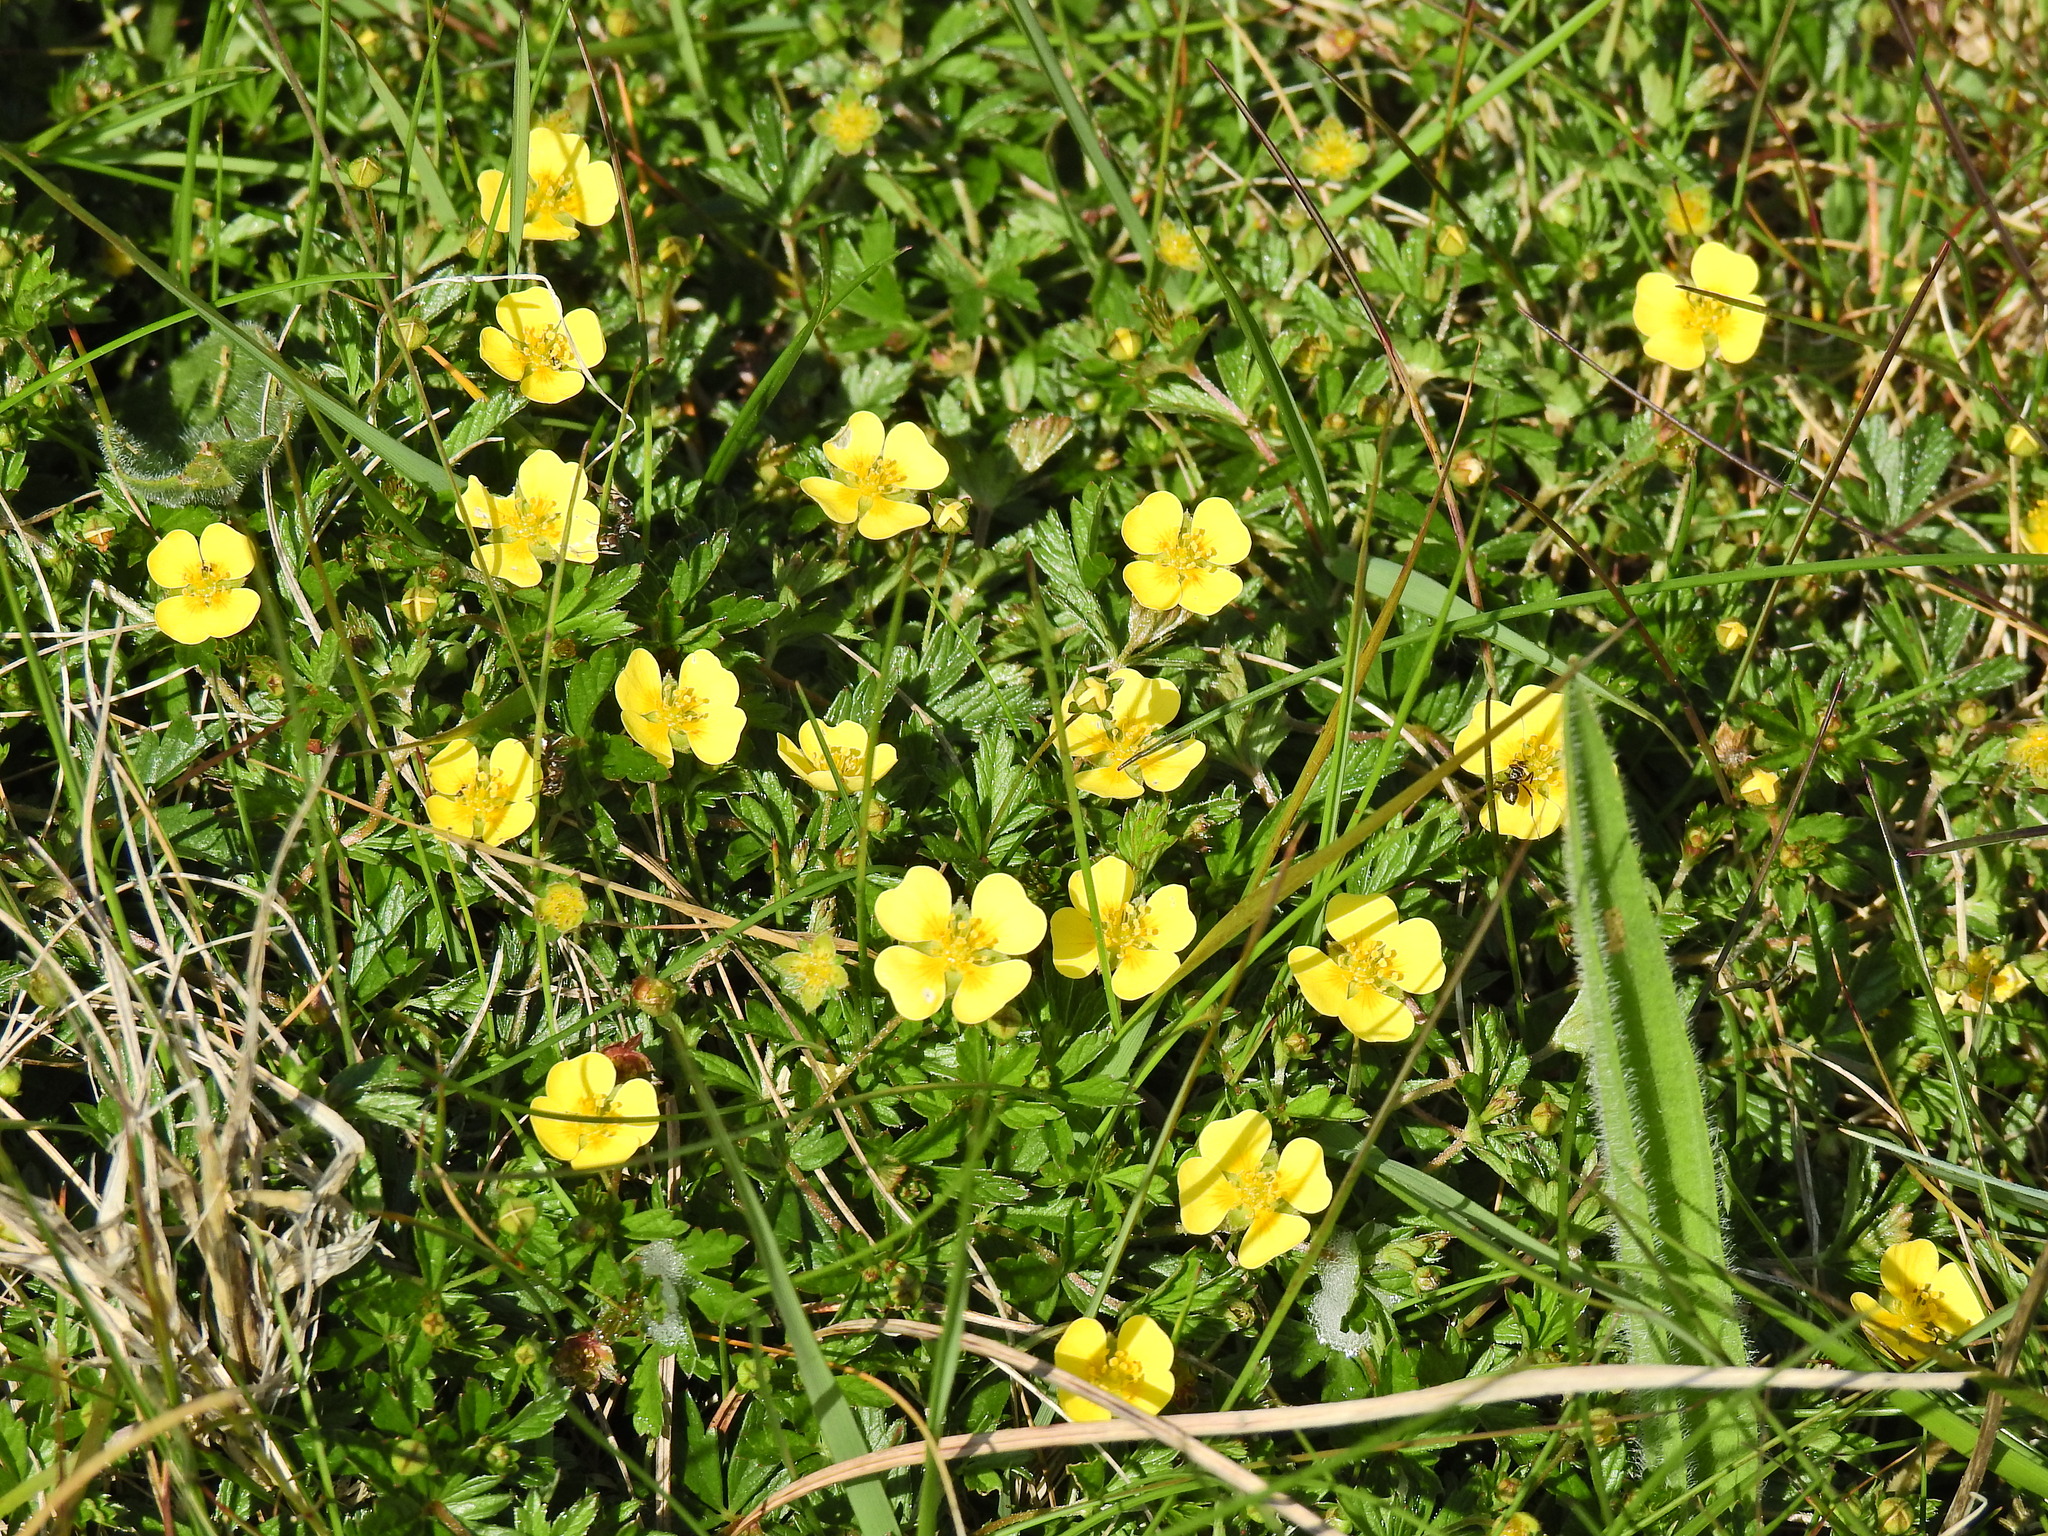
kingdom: Plantae
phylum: Tracheophyta
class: Magnoliopsida
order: Rosales
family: Rosaceae
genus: Potentilla
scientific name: Potentilla erecta
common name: Tormentil
